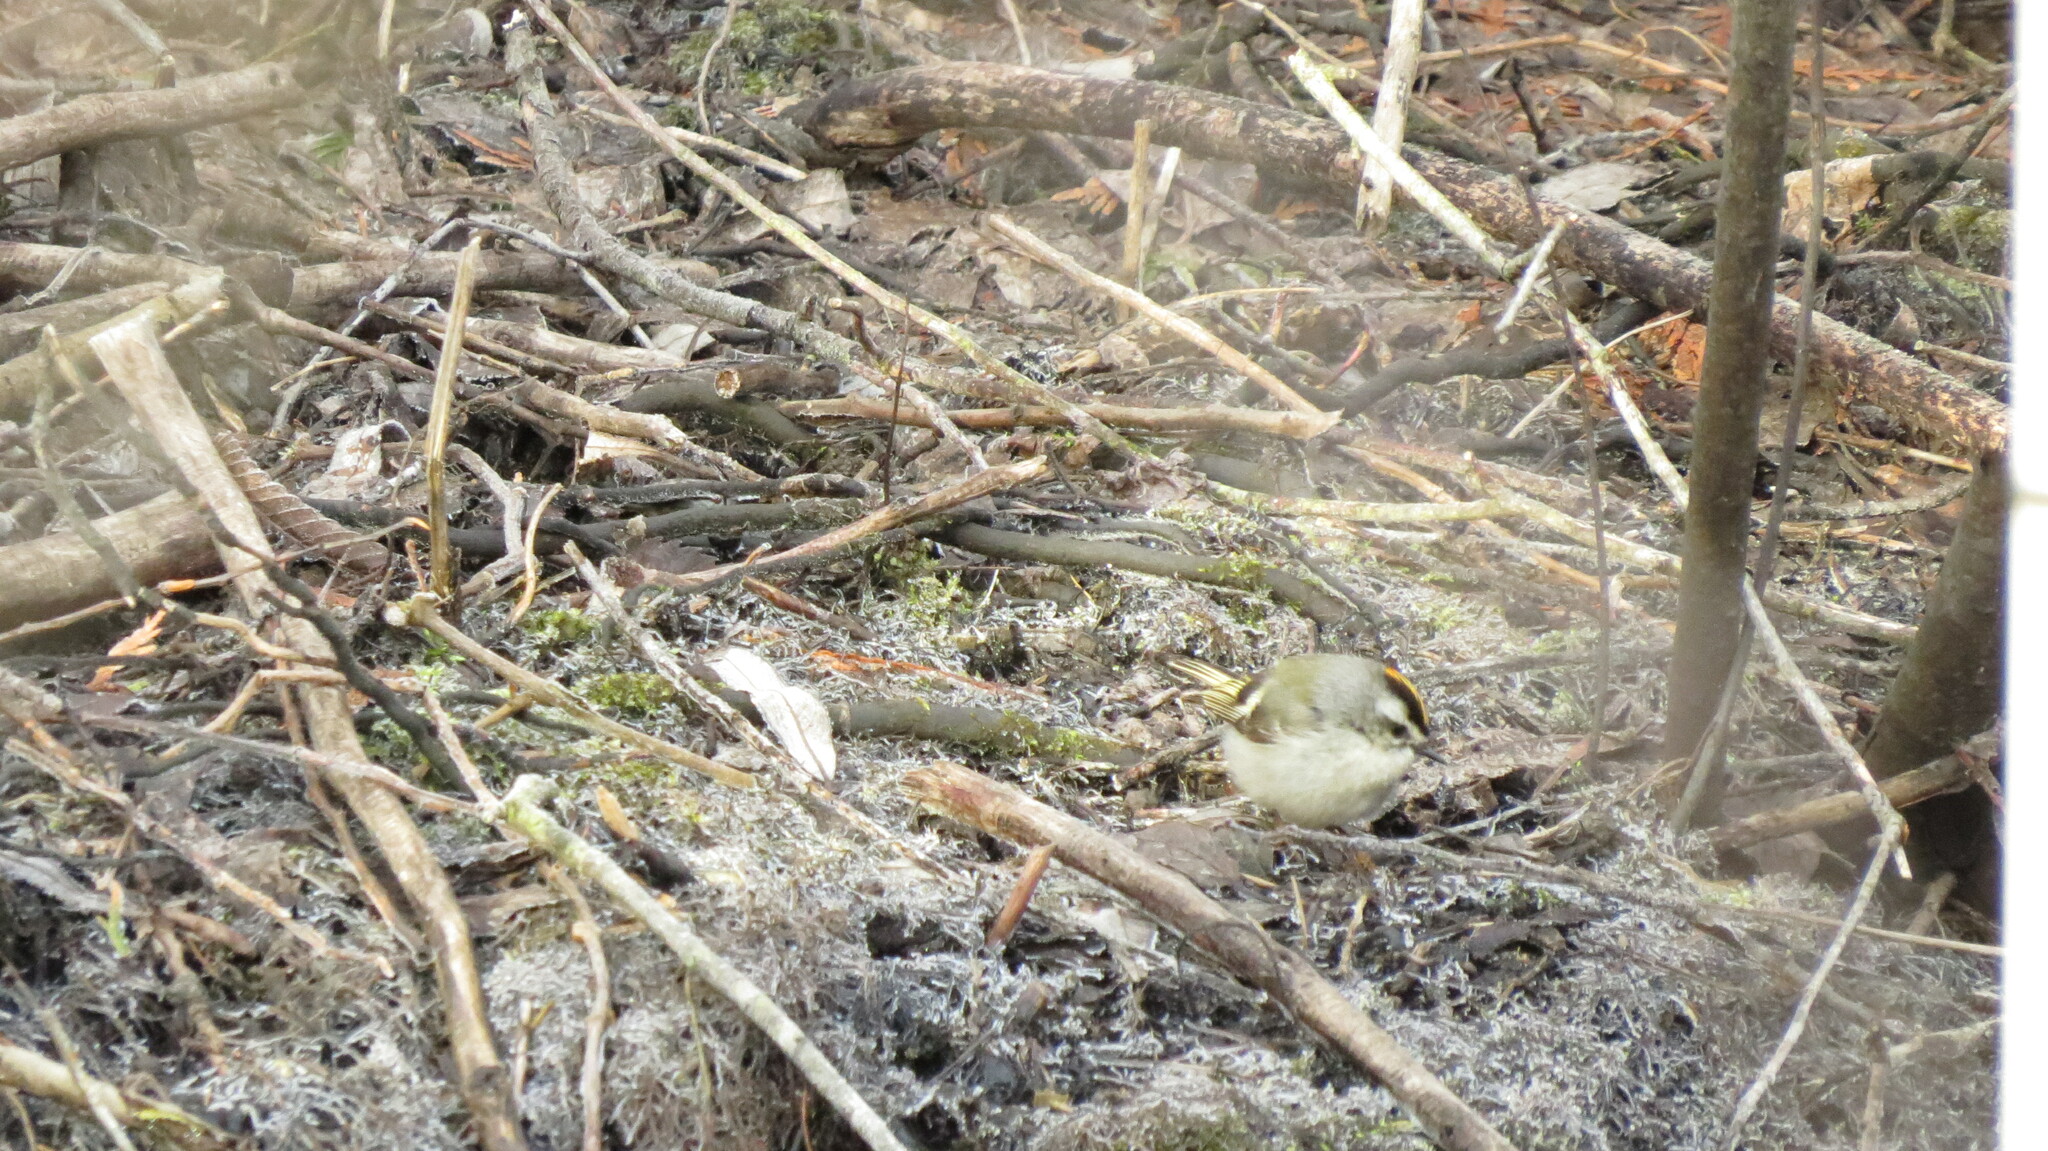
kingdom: Animalia
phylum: Chordata
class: Aves
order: Passeriformes
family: Regulidae
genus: Regulus
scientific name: Regulus satrapa
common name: Golden-crowned kinglet
